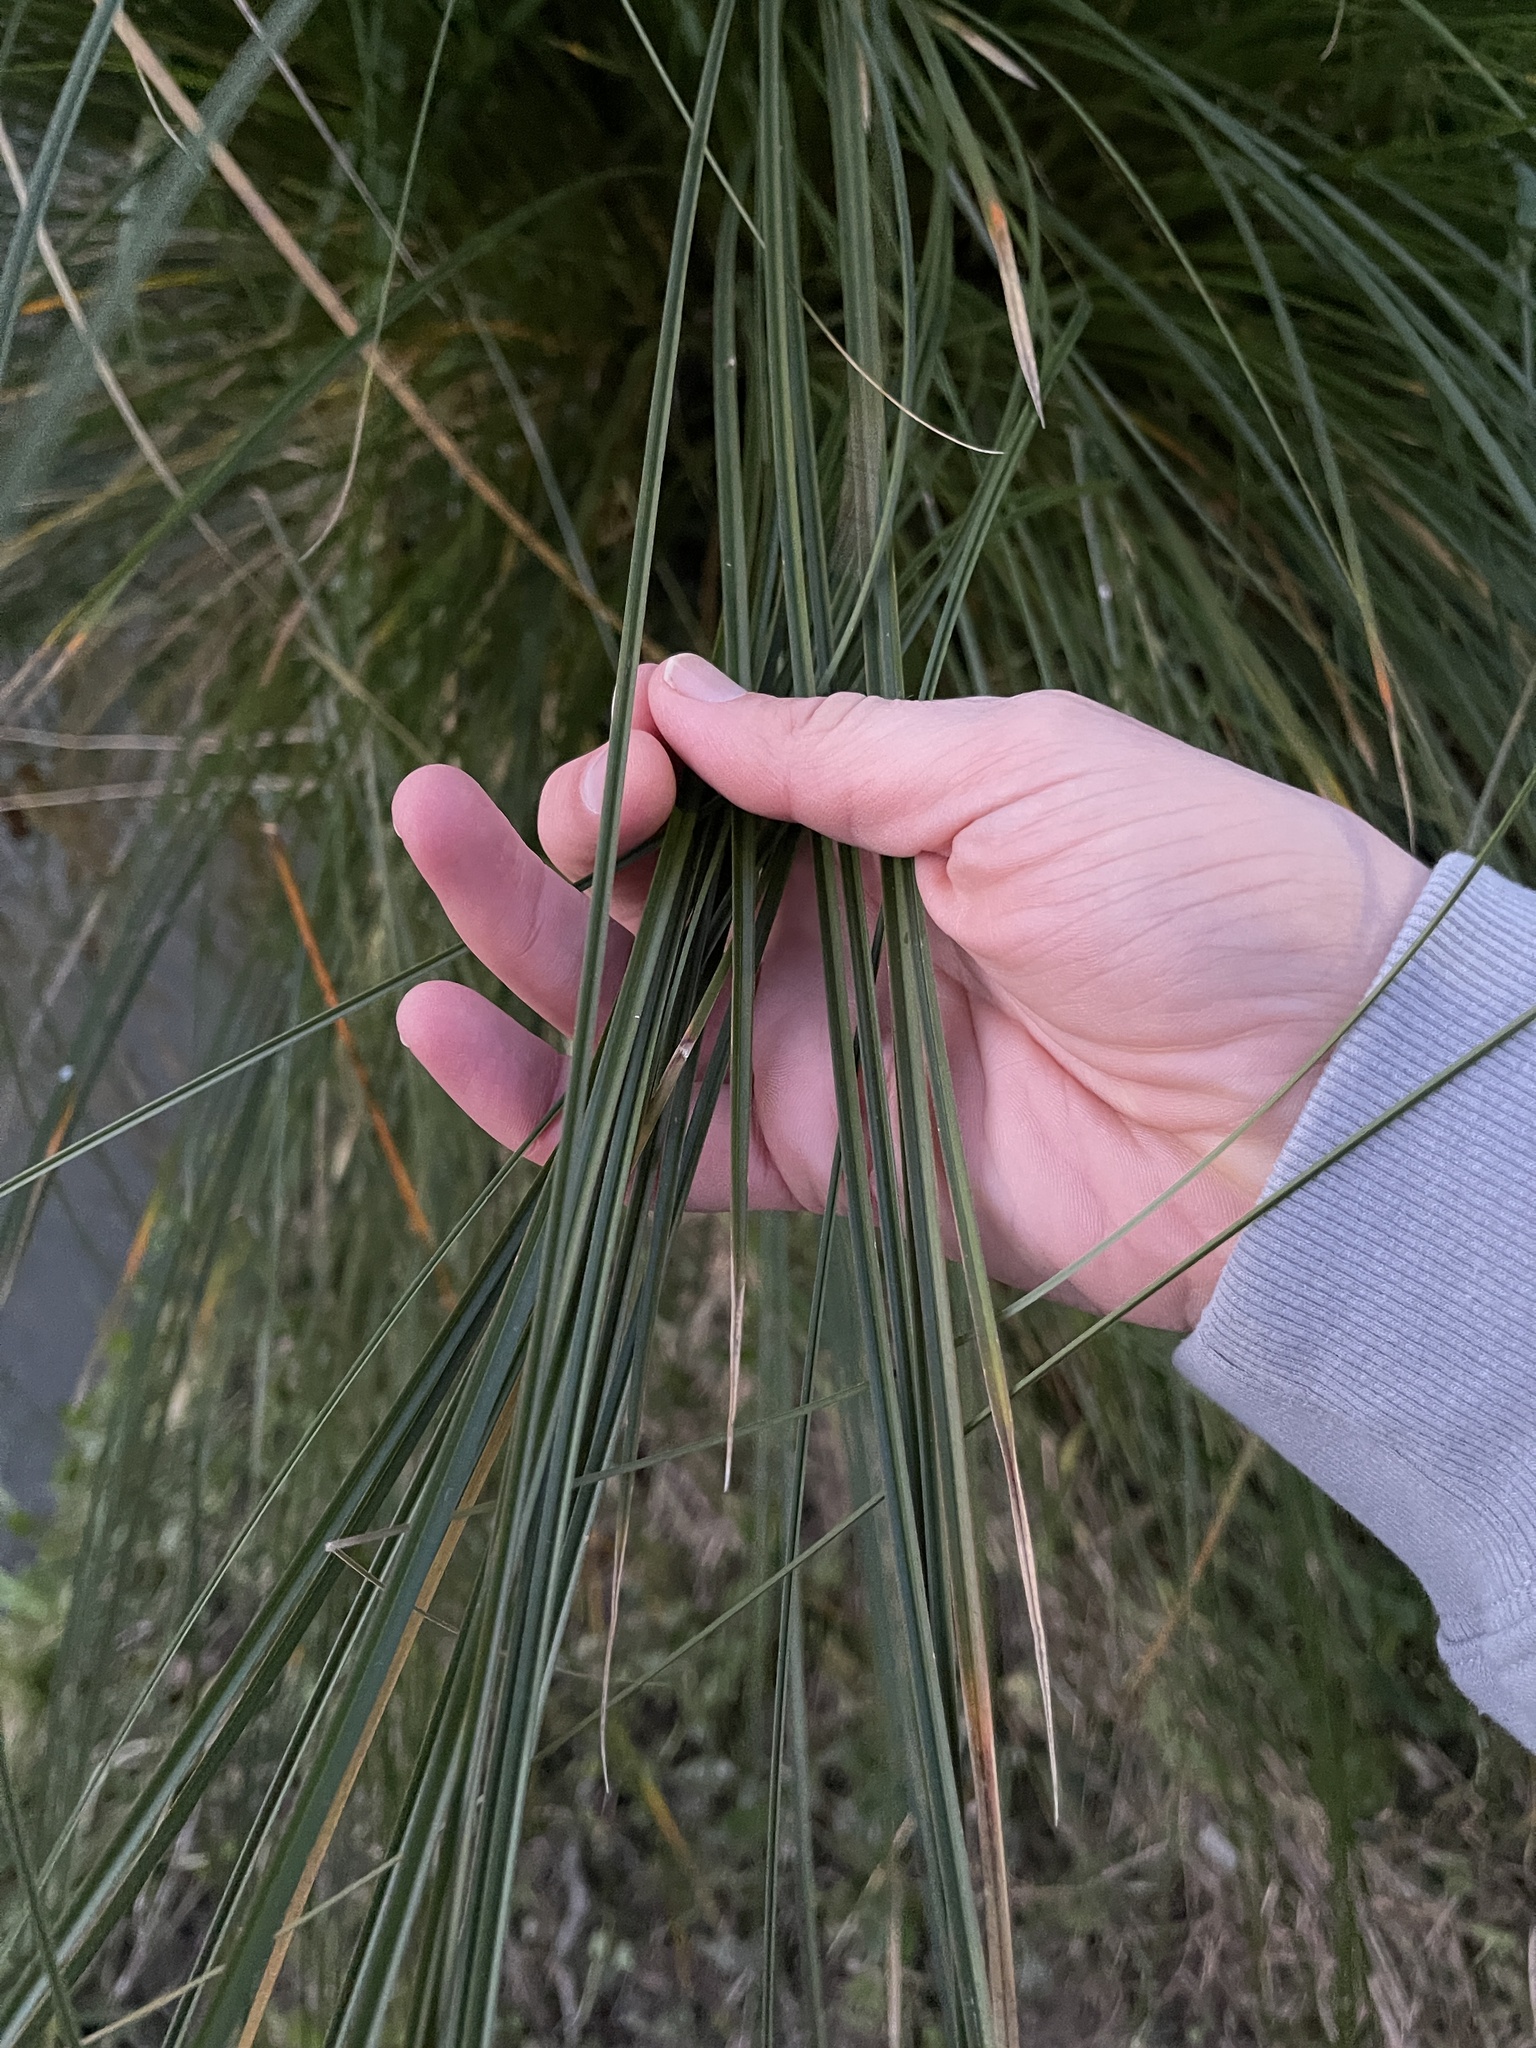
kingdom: Plantae
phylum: Tracheophyta
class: Liliopsida
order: Poales
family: Cyperaceae
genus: Carex
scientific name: Carex secta
